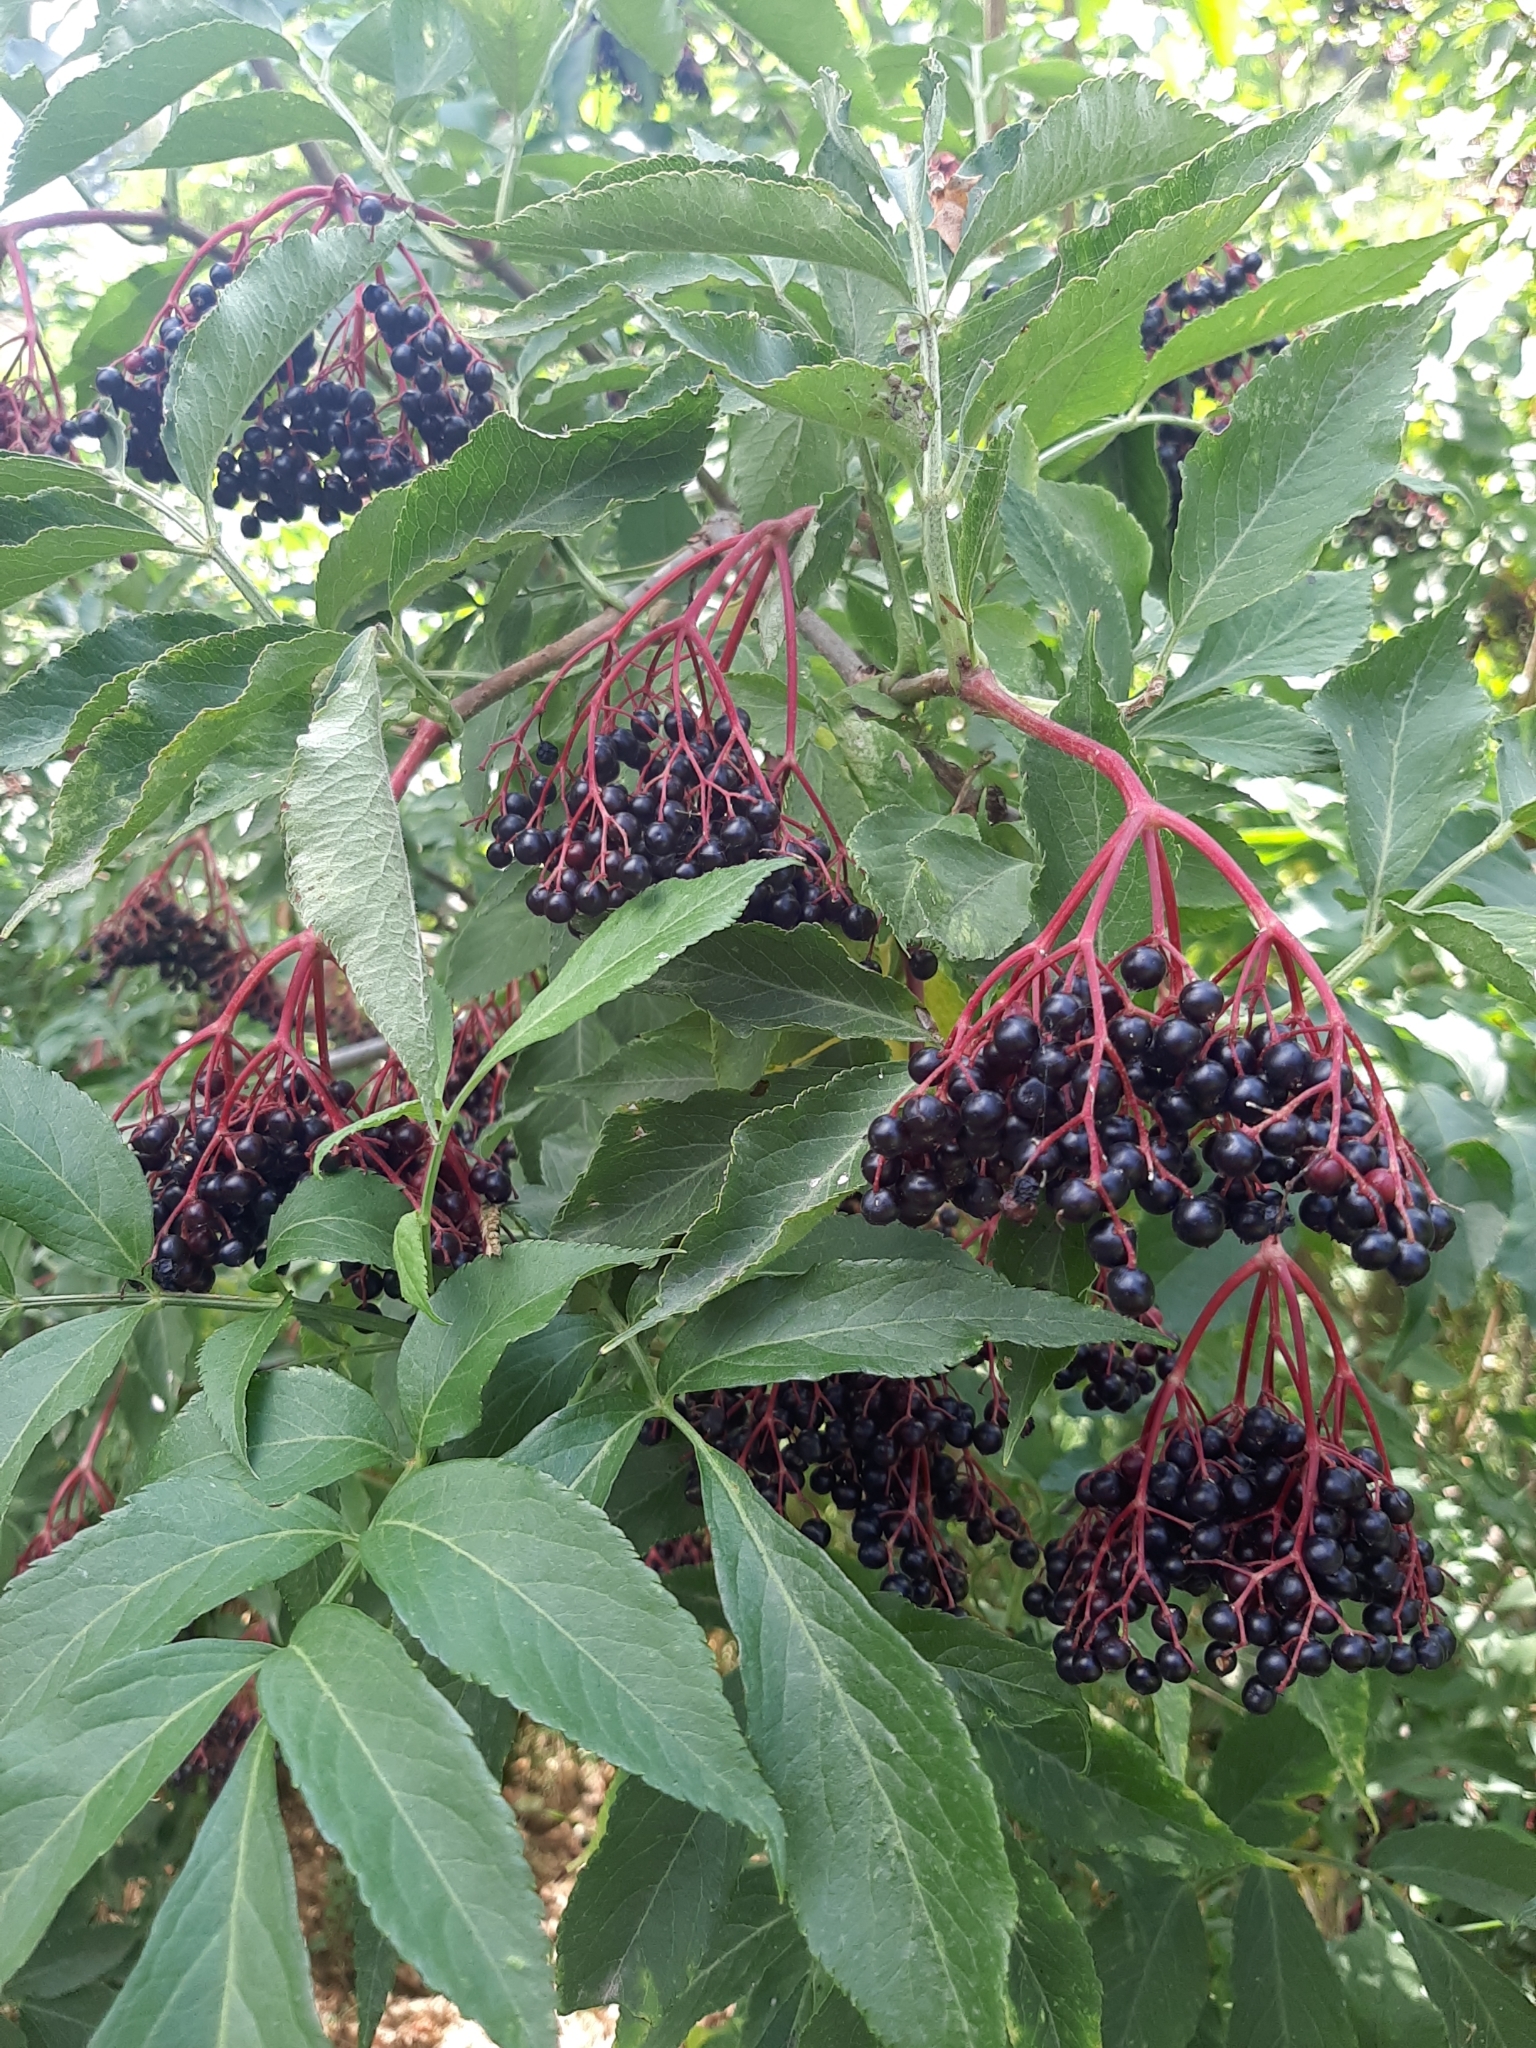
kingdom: Plantae
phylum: Tracheophyta
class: Magnoliopsida
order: Dipsacales
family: Viburnaceae
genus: Sambucus
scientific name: Sambucus nigra
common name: Elder
